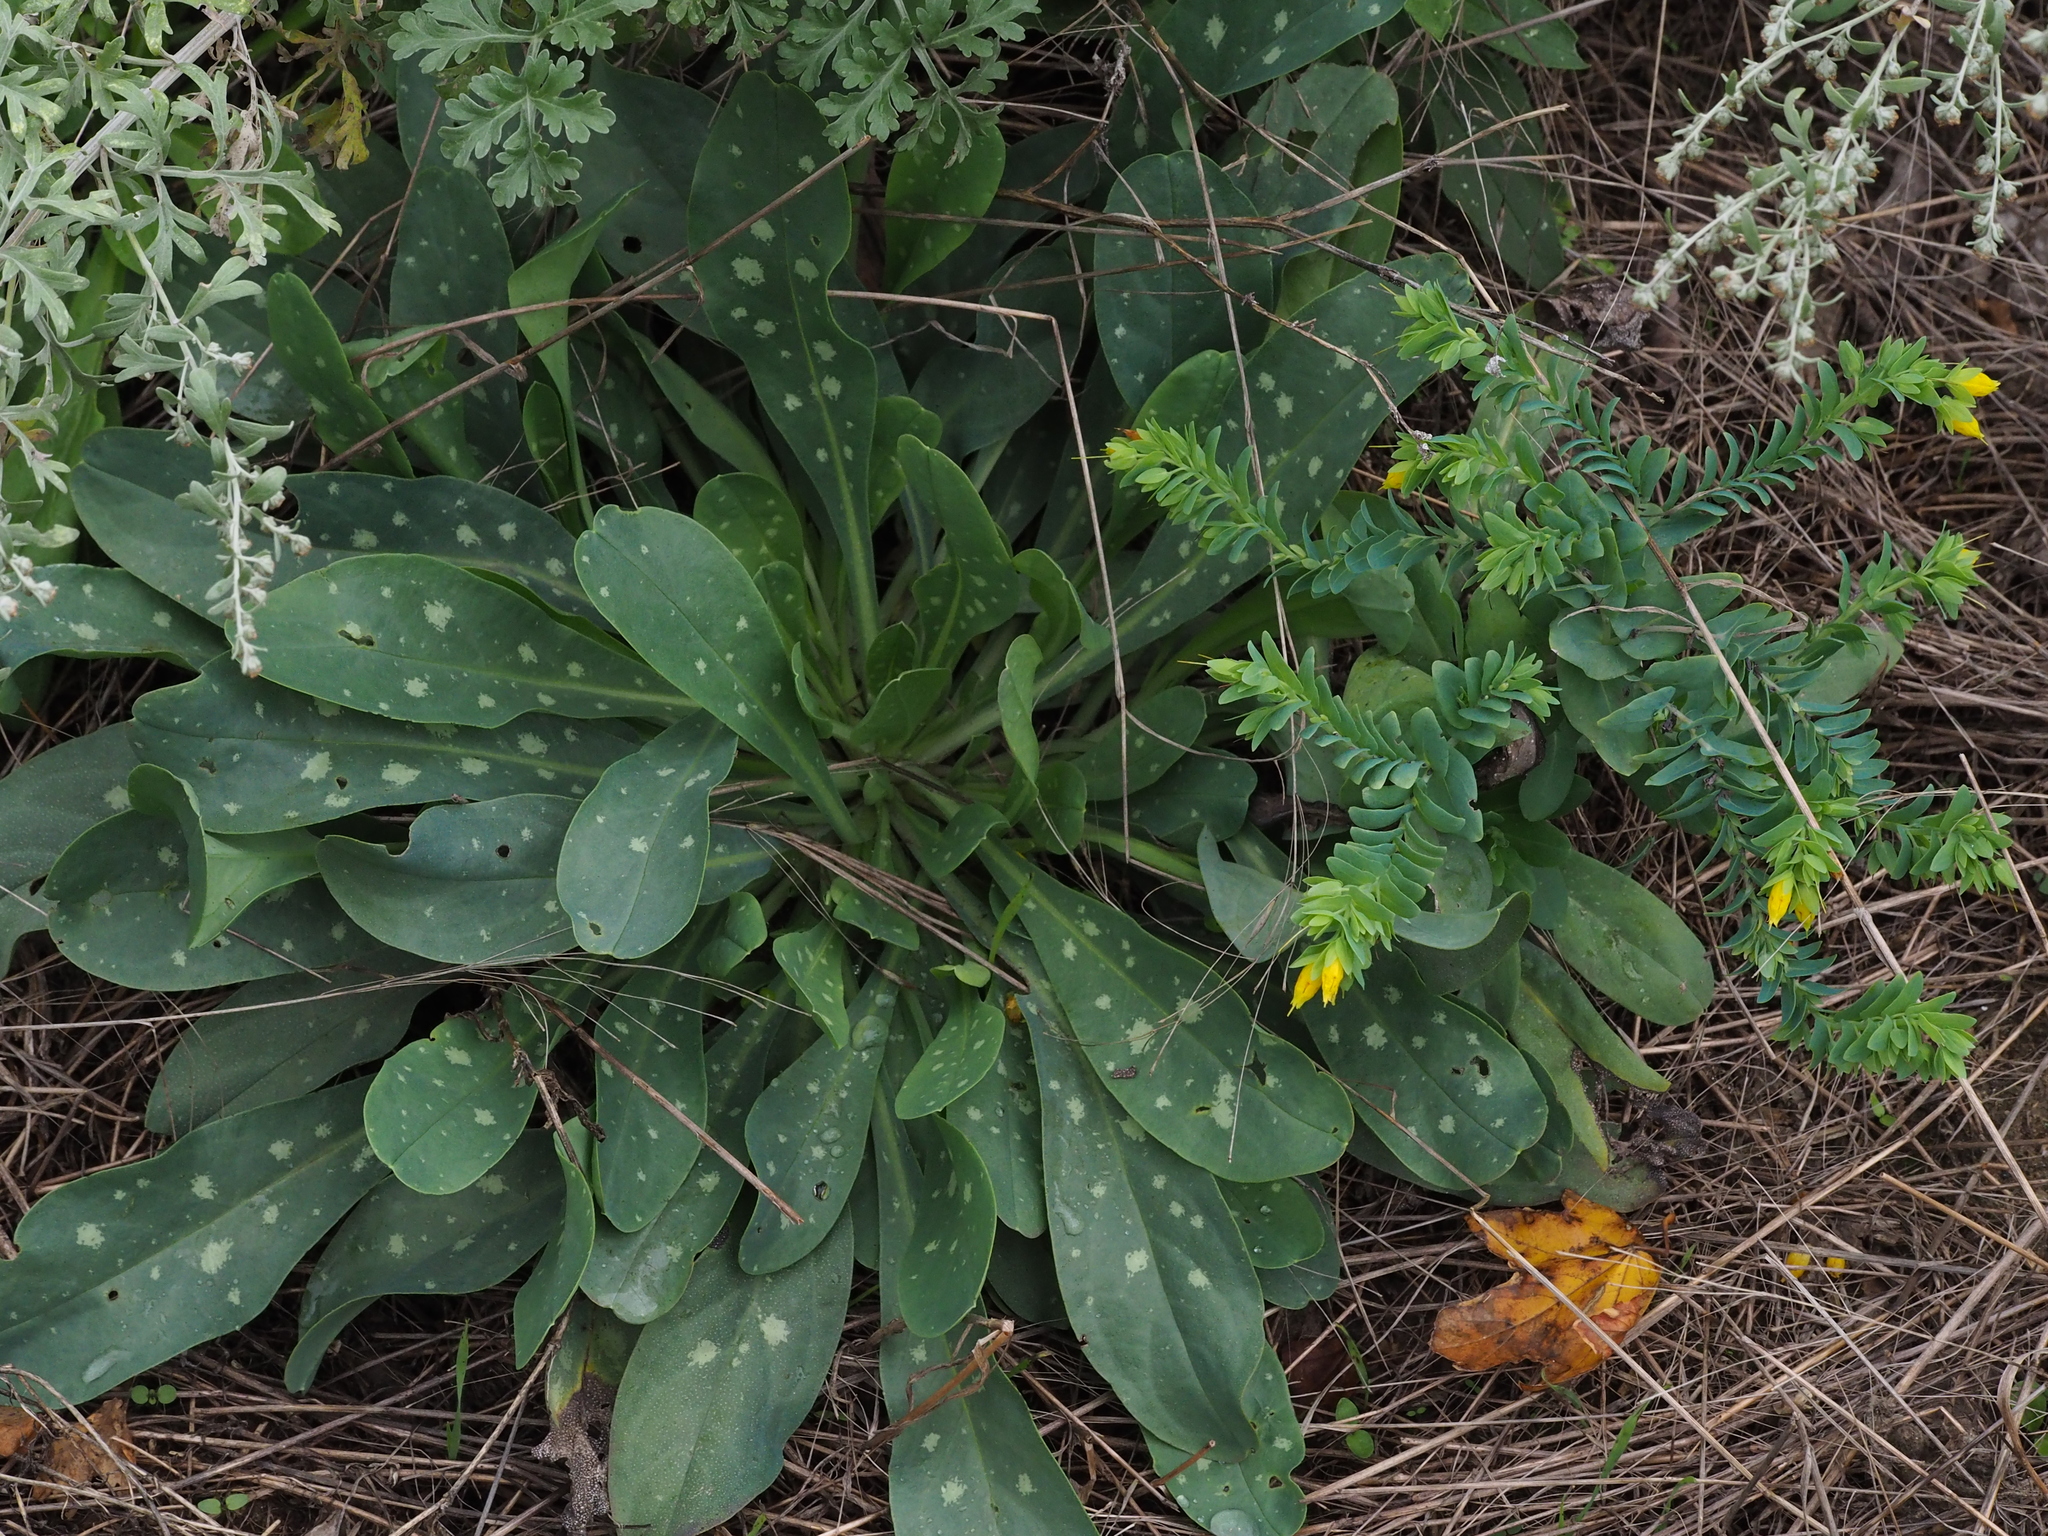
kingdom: Plantae
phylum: Tracheophyta
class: Magnoliopsida
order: Boraginales
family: Boraginaceae
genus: Cerinthe
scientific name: Cerinthe minor
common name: Lesser honeywort
